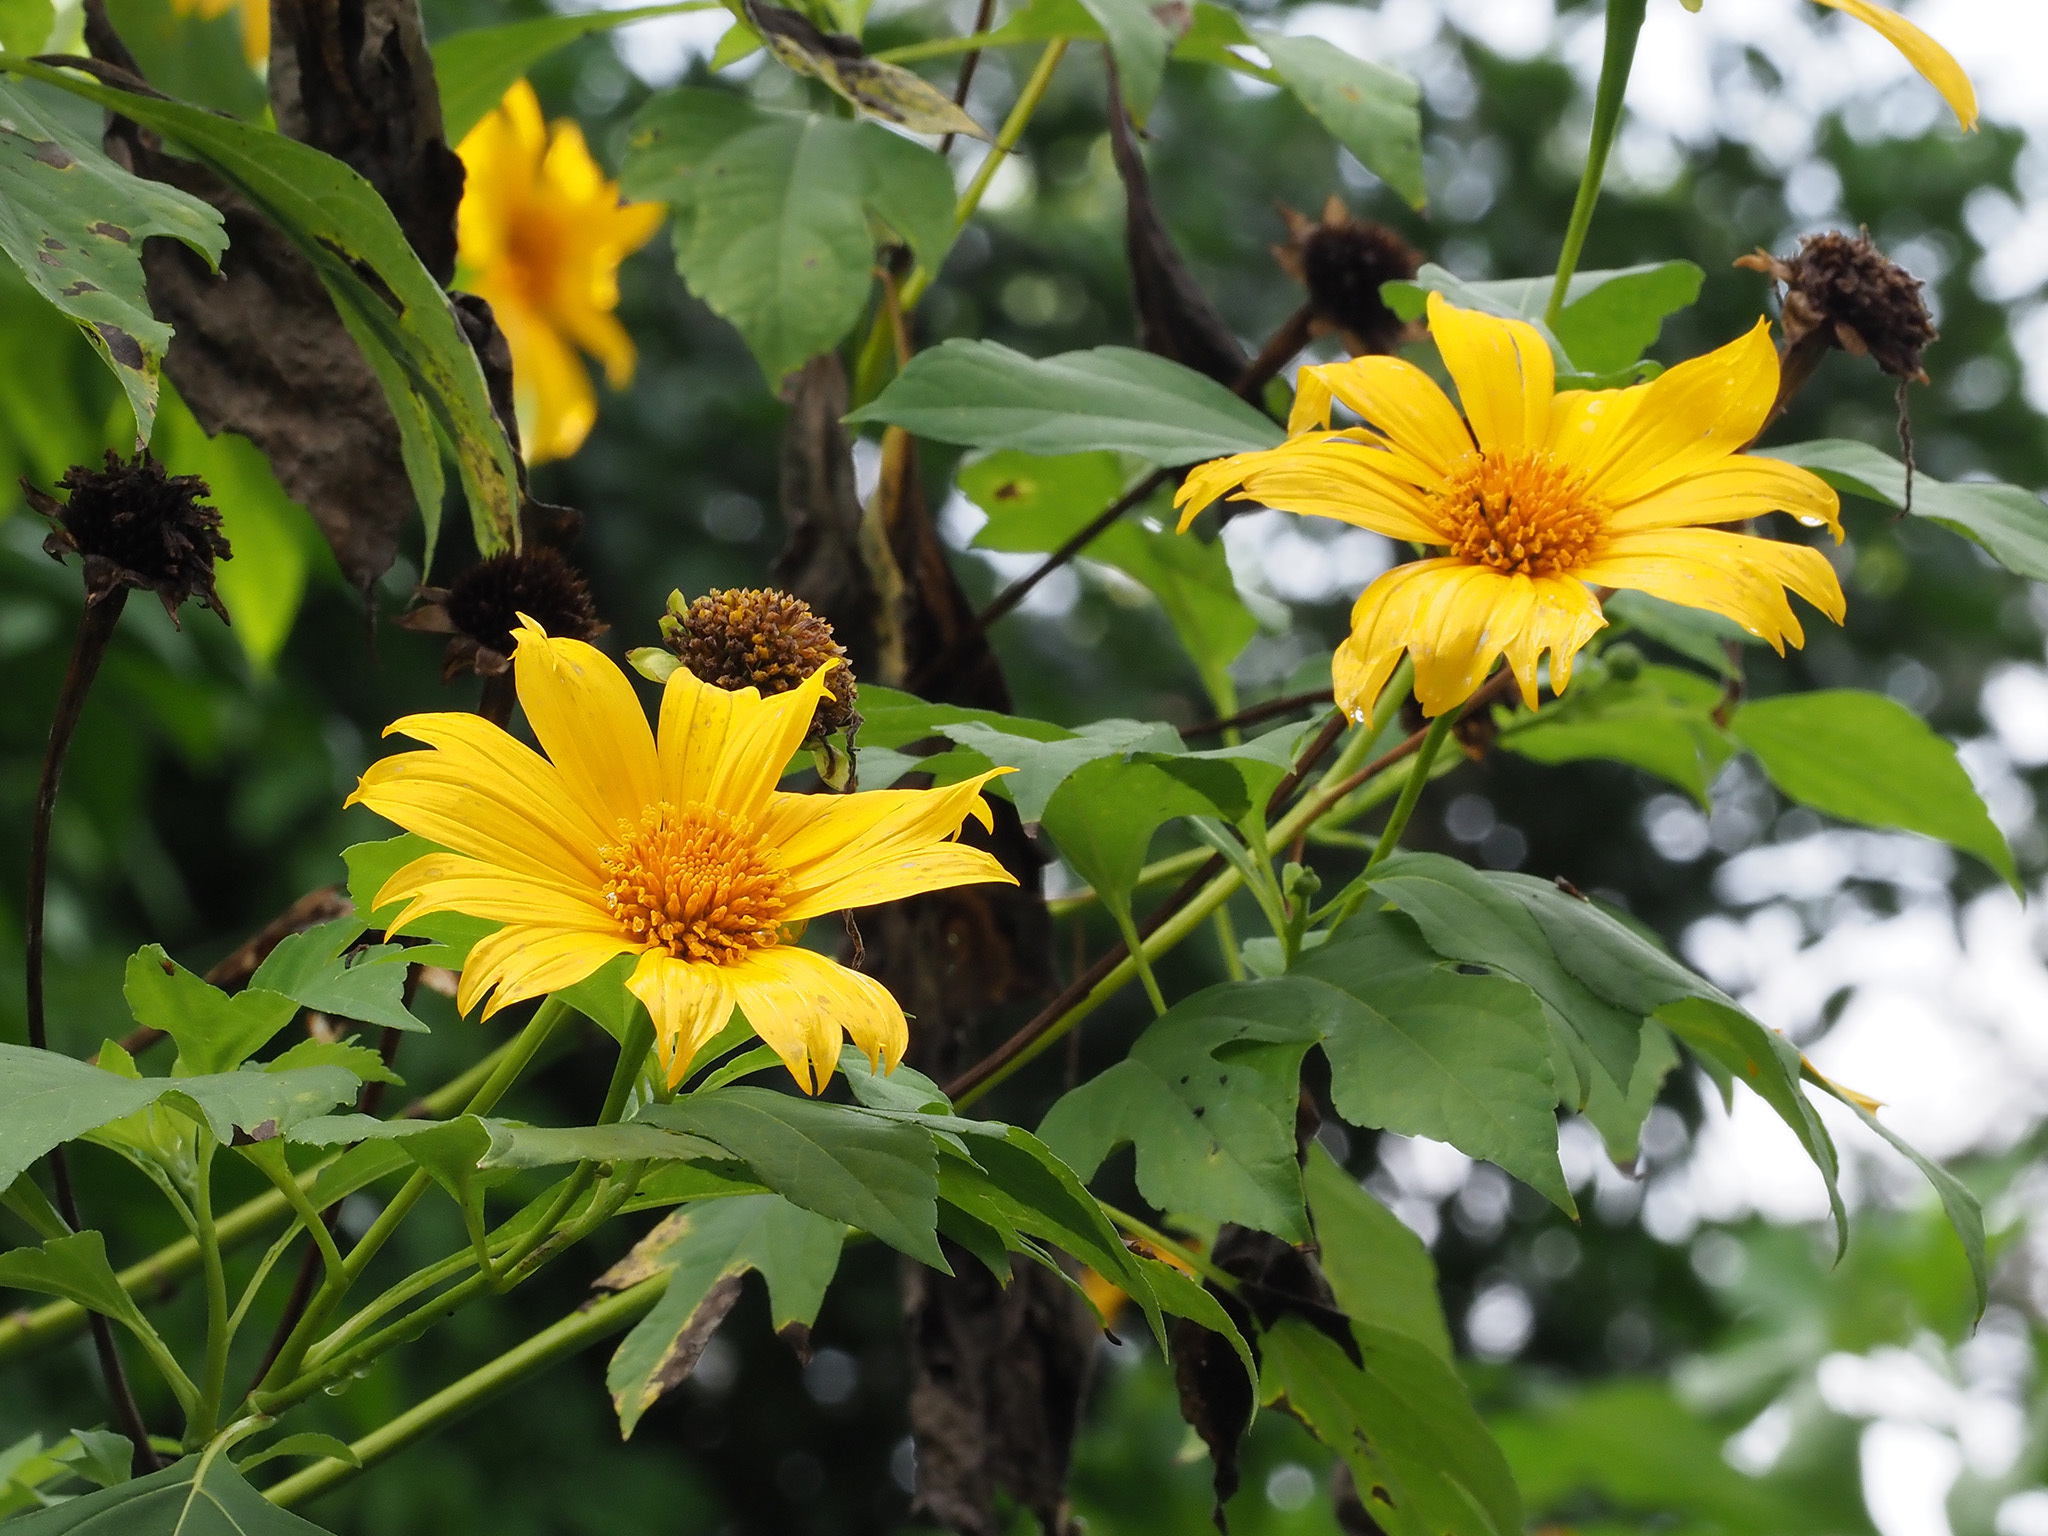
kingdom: Plantae
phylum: Tracheophyta
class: Magnoliopsida
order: Asterales
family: Asteraceae
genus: Tithonia
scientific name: Tithonia diversifolia
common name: Tree marigold
